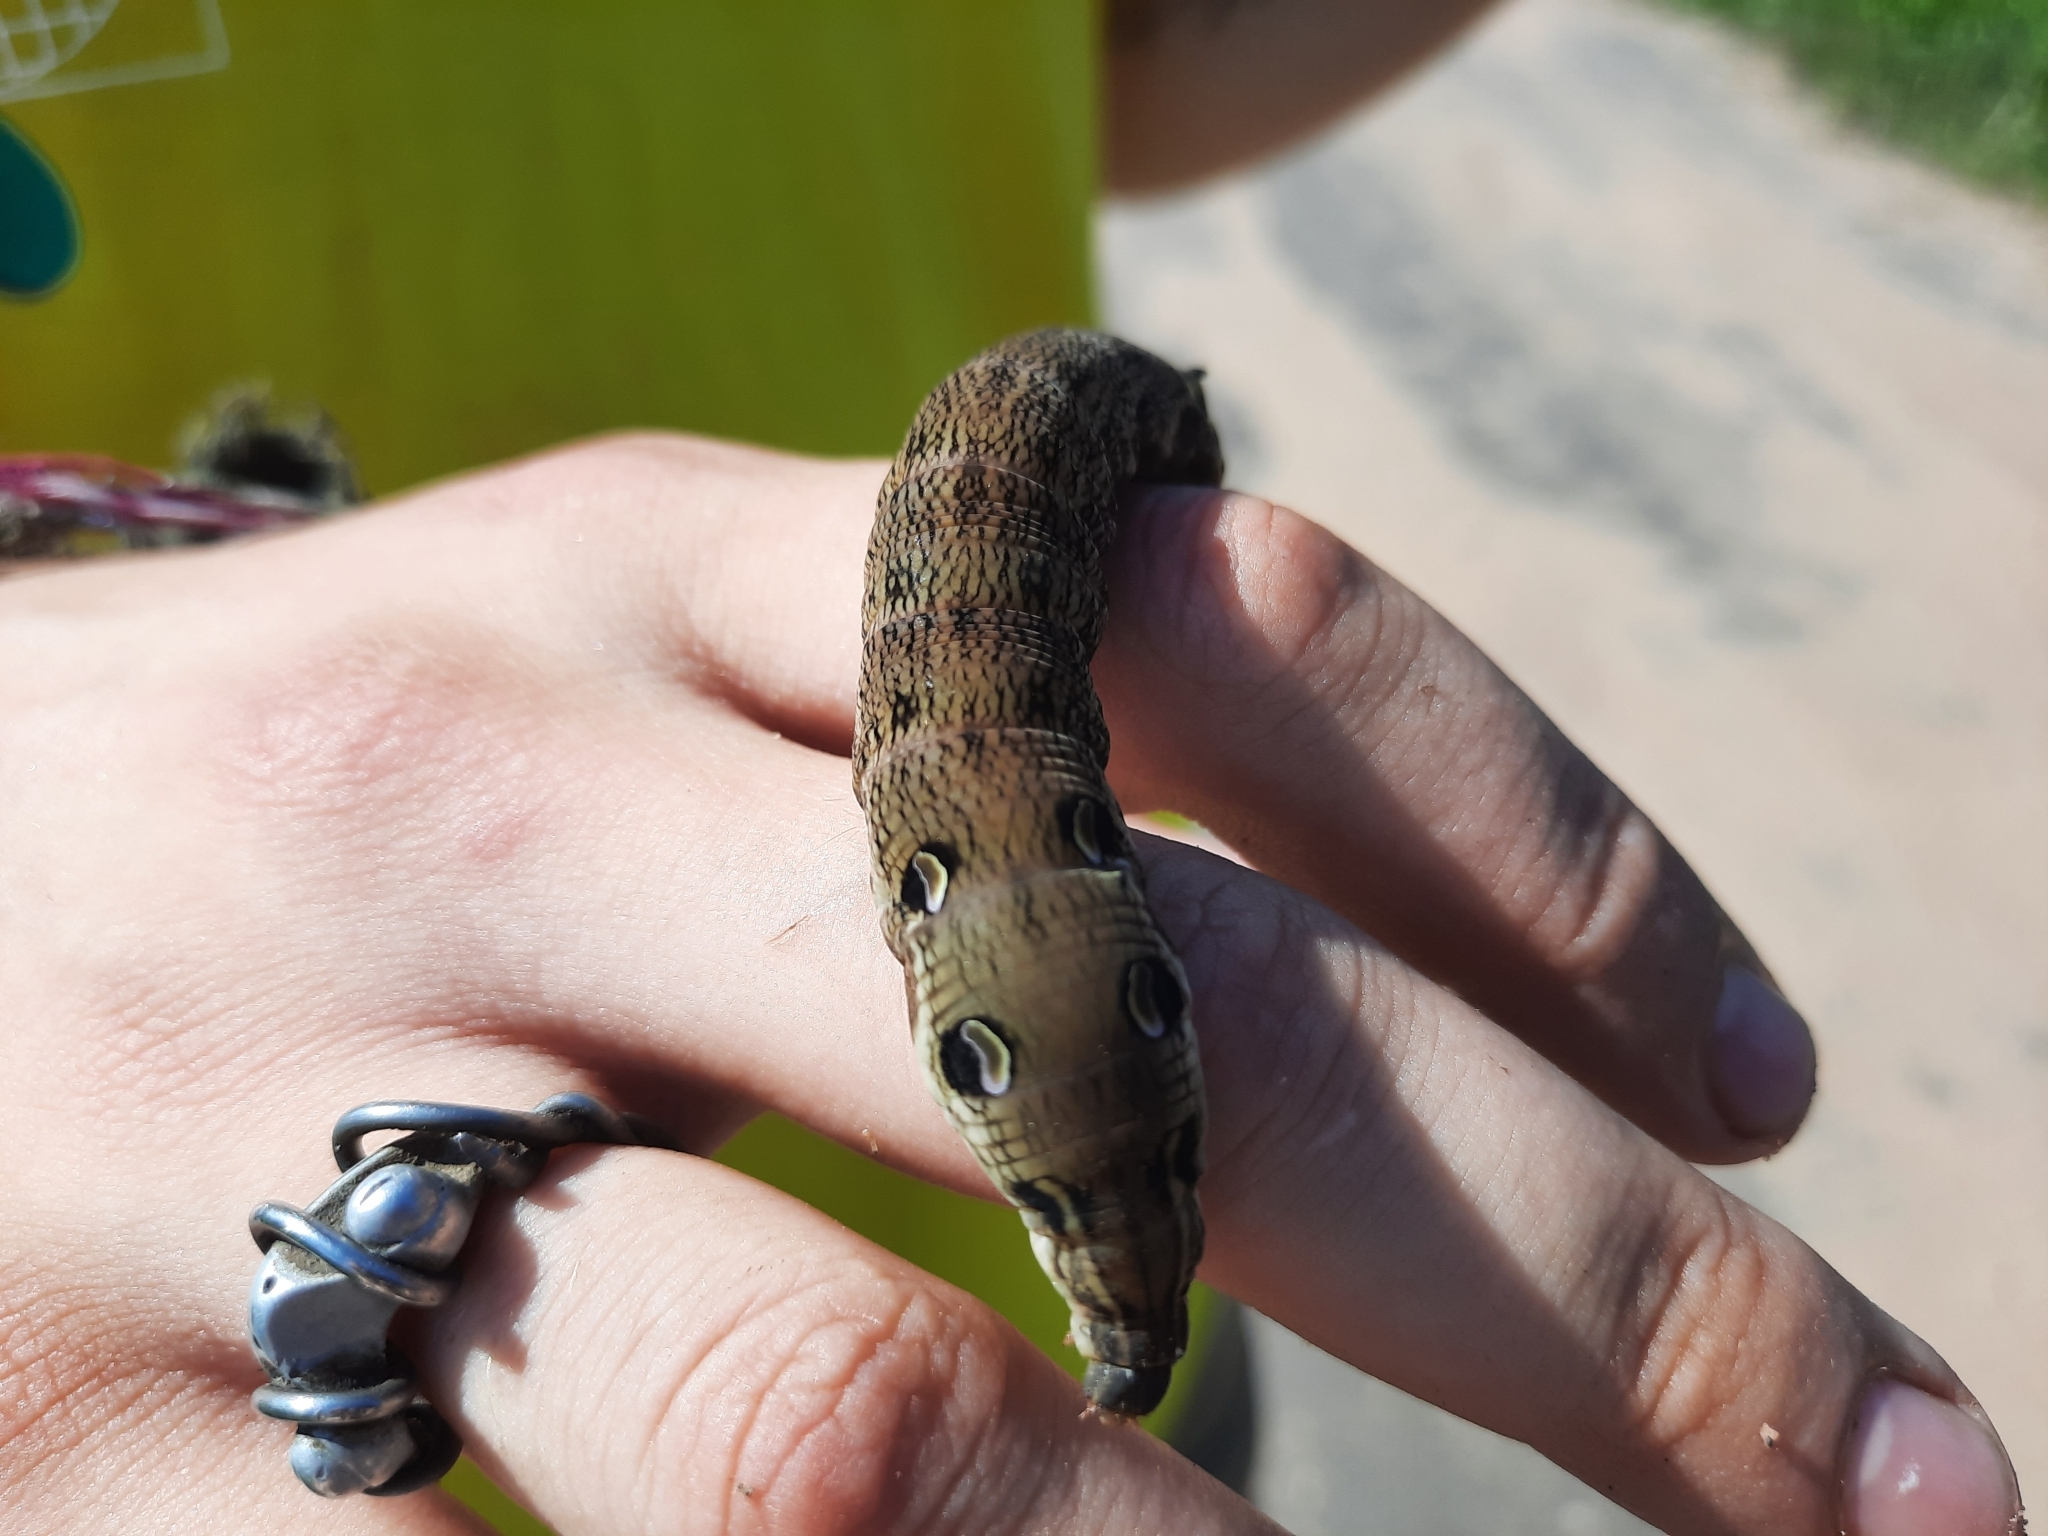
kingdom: Animalia
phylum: Arthropoda
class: Insecta
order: Lepidoptera
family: Sphingidae
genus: Deilephila
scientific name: Deilephila elpenor
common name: Elephant hawk-moth
